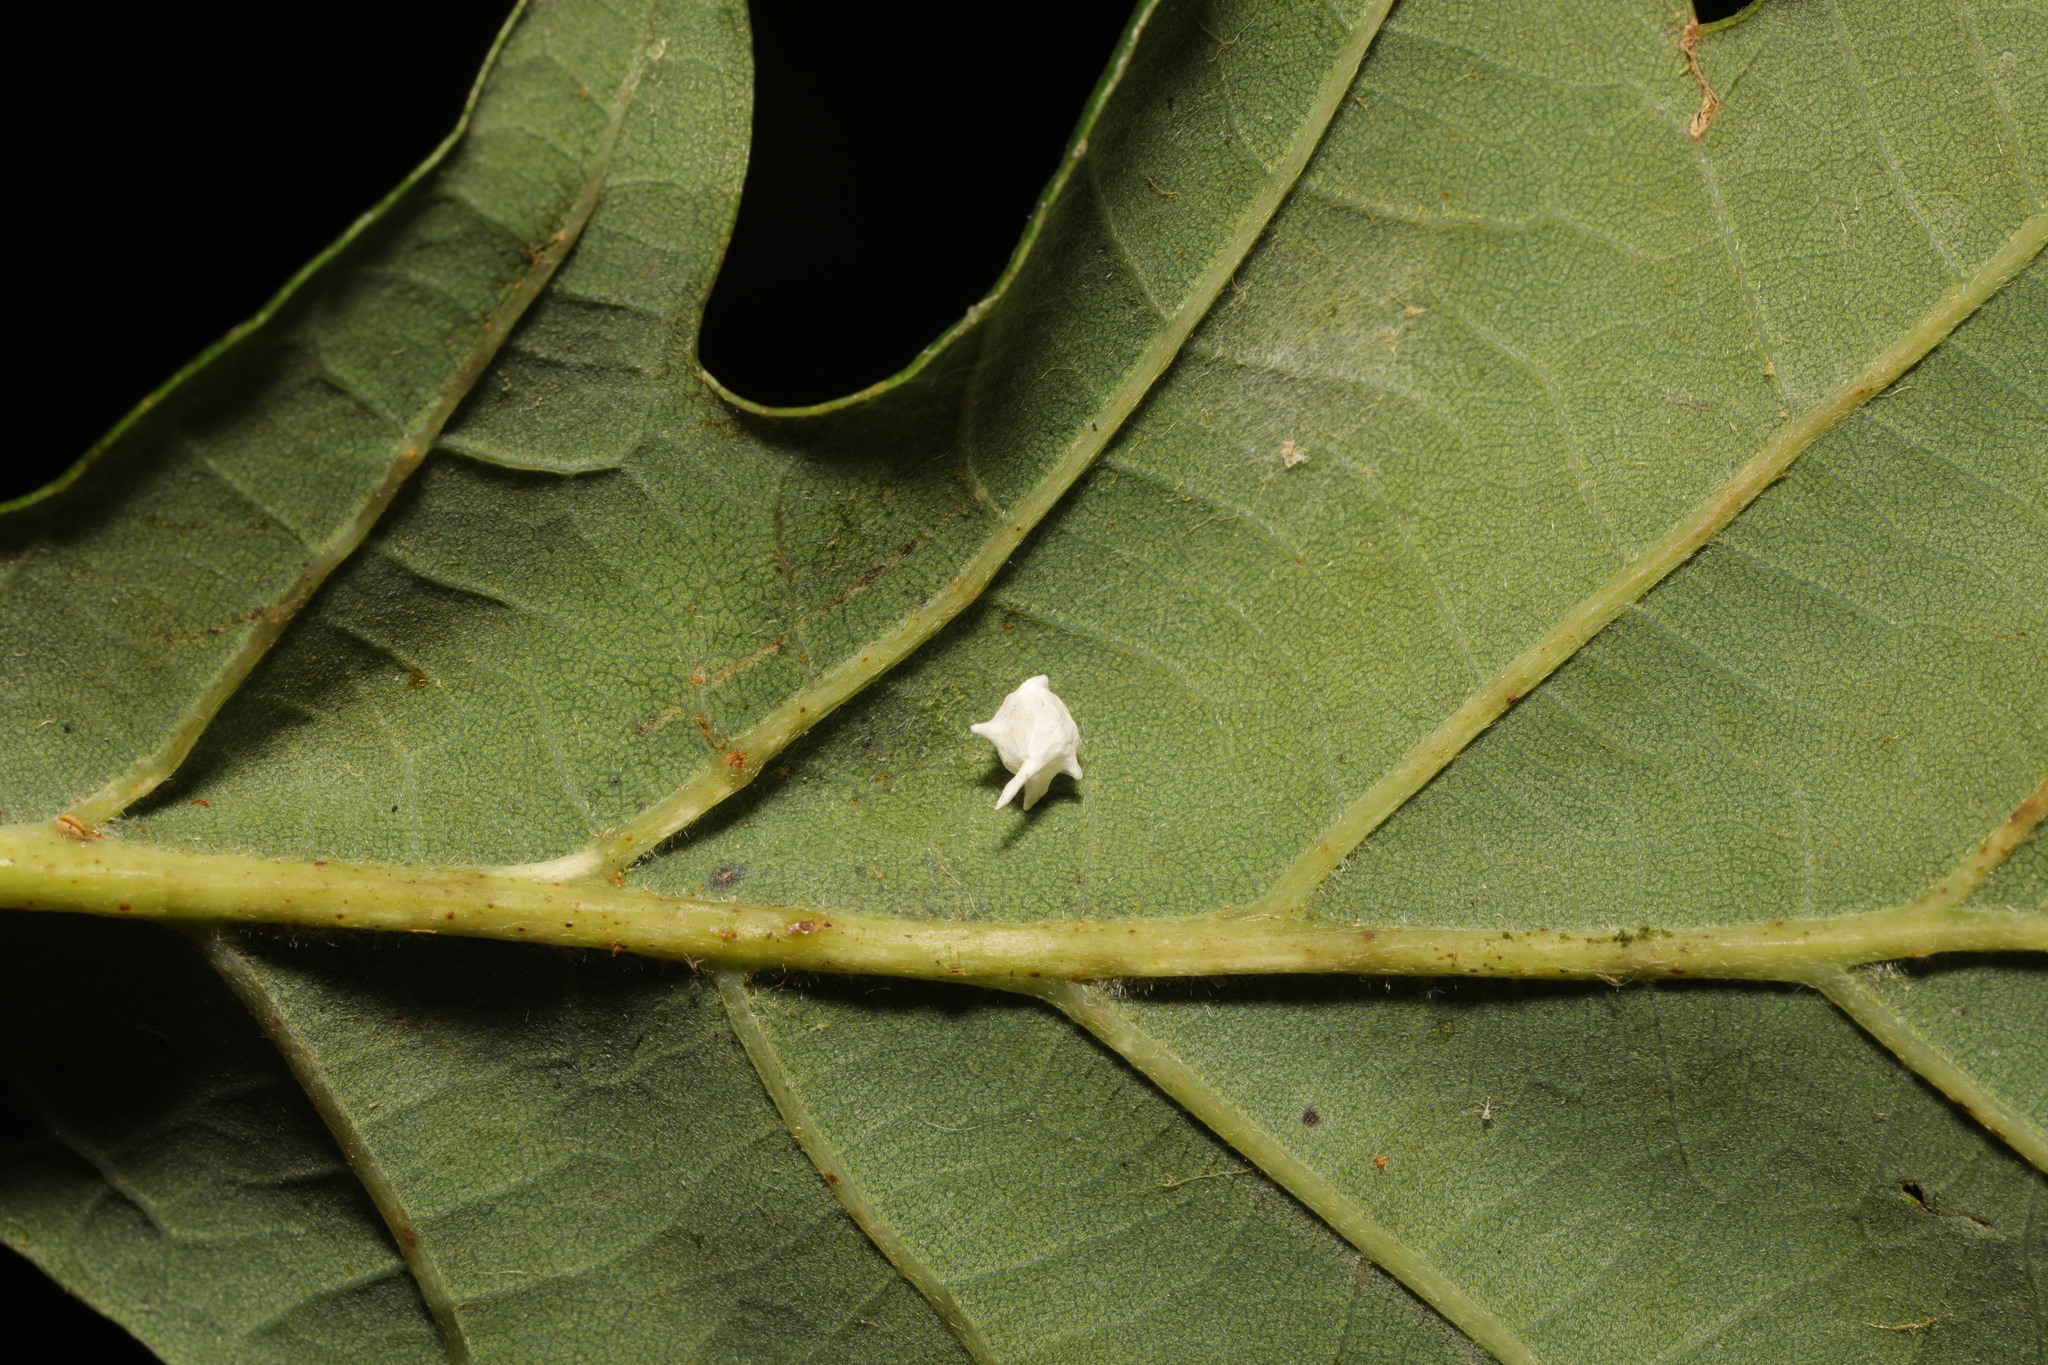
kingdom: Animalia
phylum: Arthropoda
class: Arachnida
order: Araneae
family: Theridiidae
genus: Paidiscura
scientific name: Paidiscura pallens
